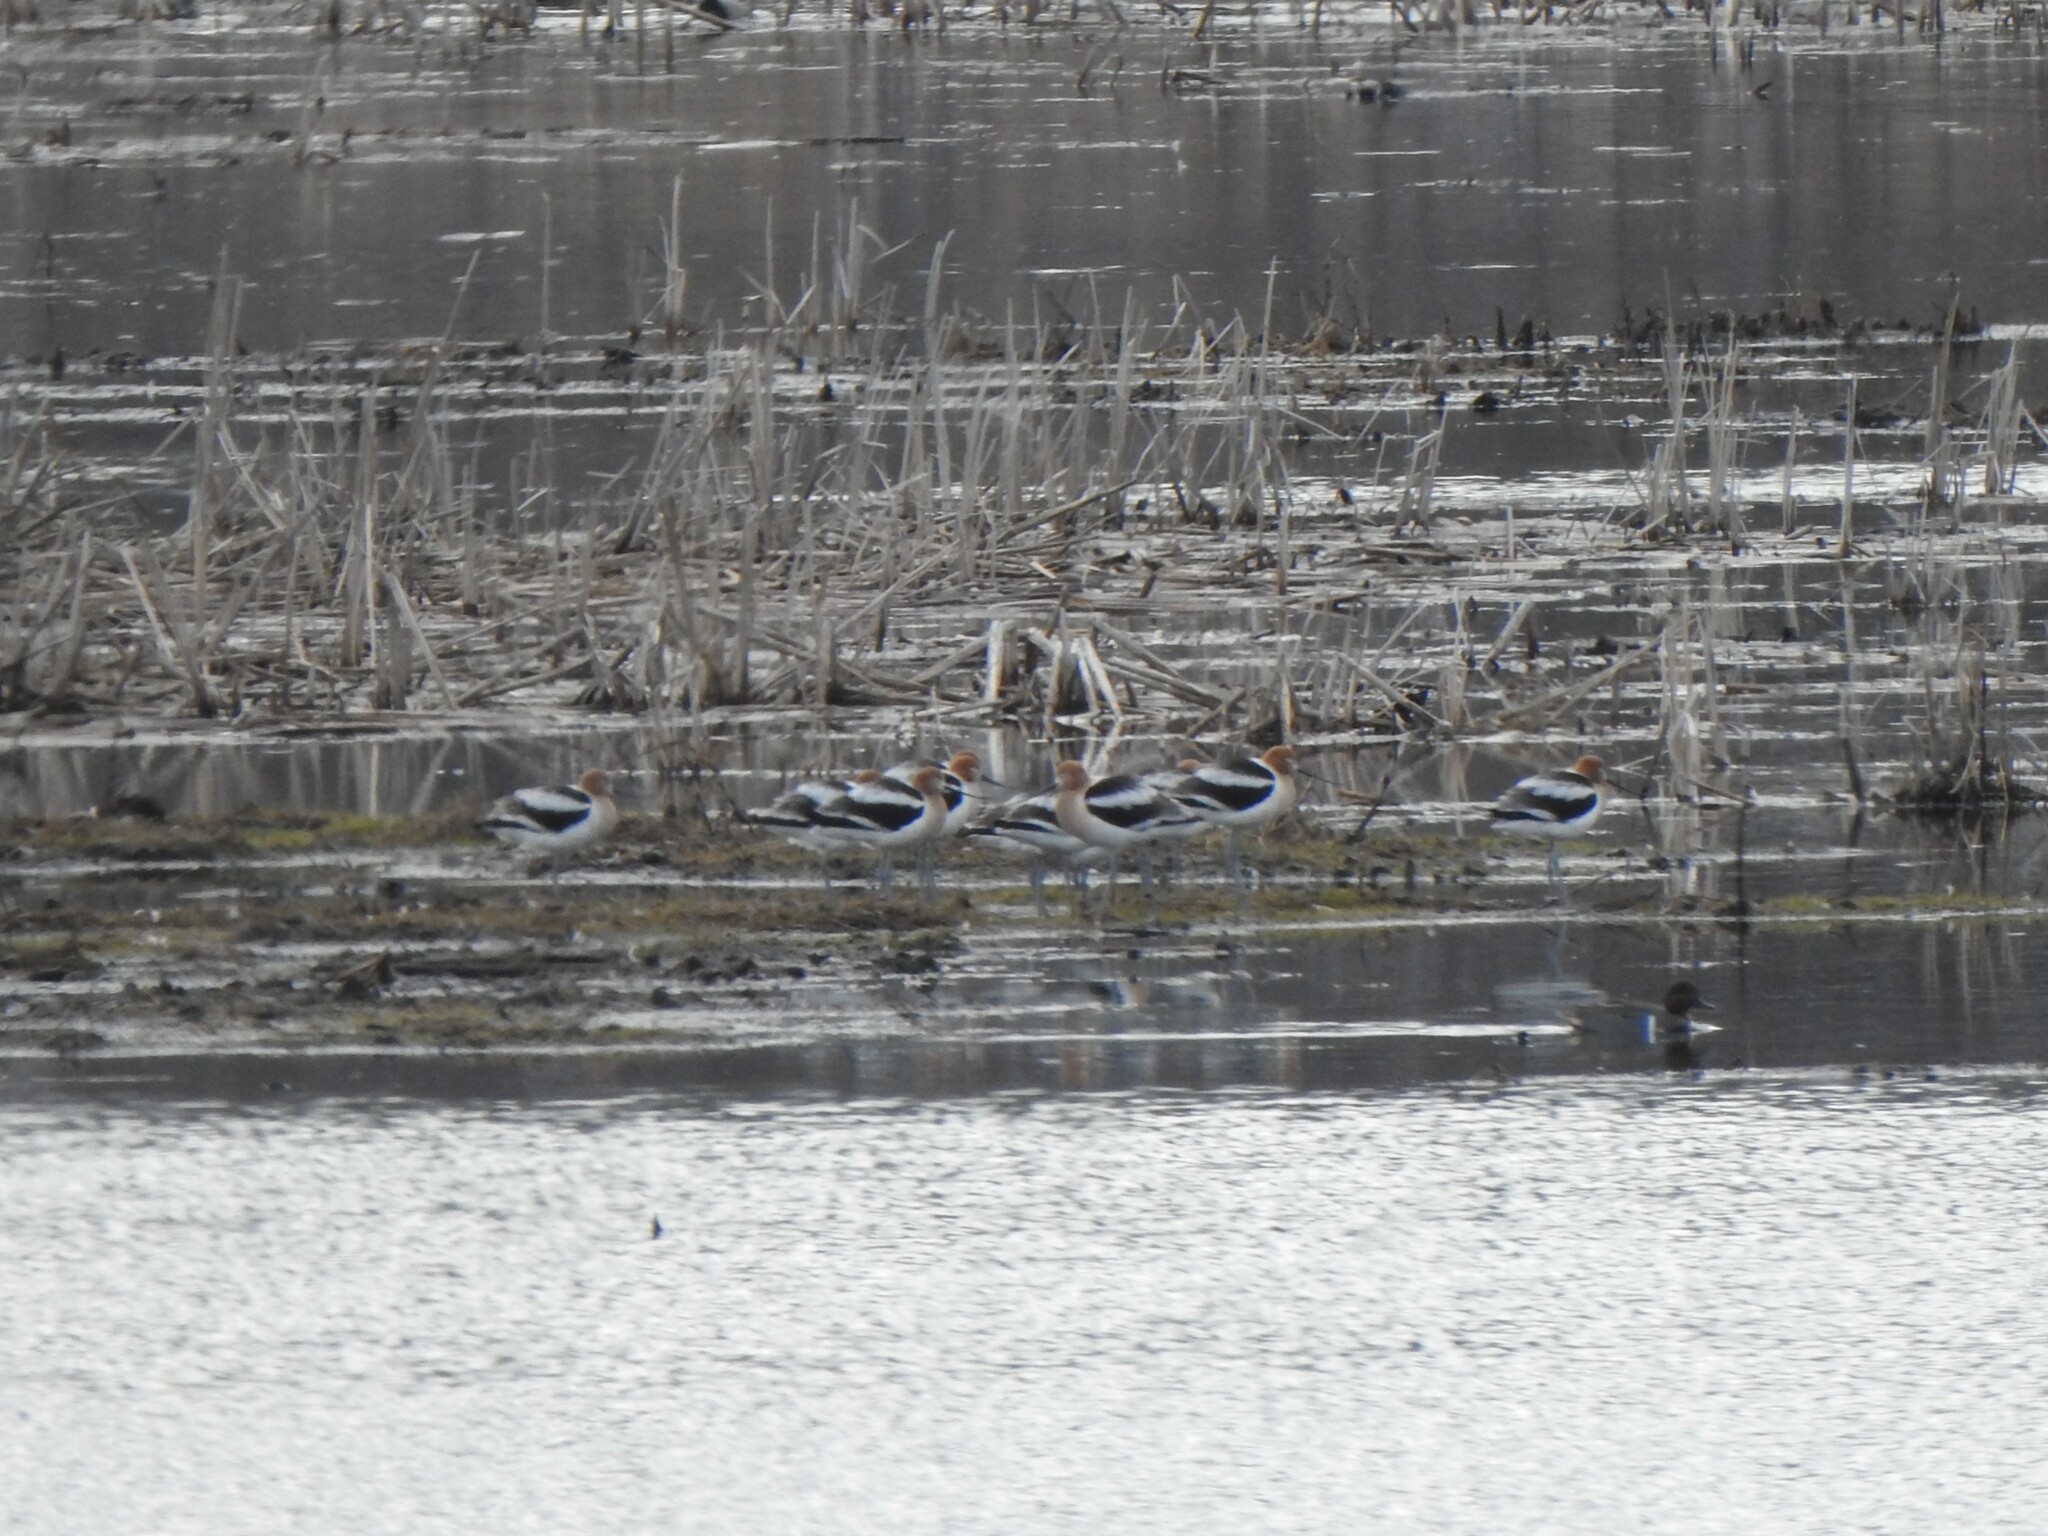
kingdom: Animalia
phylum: Chordata
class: Aves
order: Charadriiformes
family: Recurvirostridae
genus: Recurvirostra
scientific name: Recurvirostra americana
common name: American avocet
